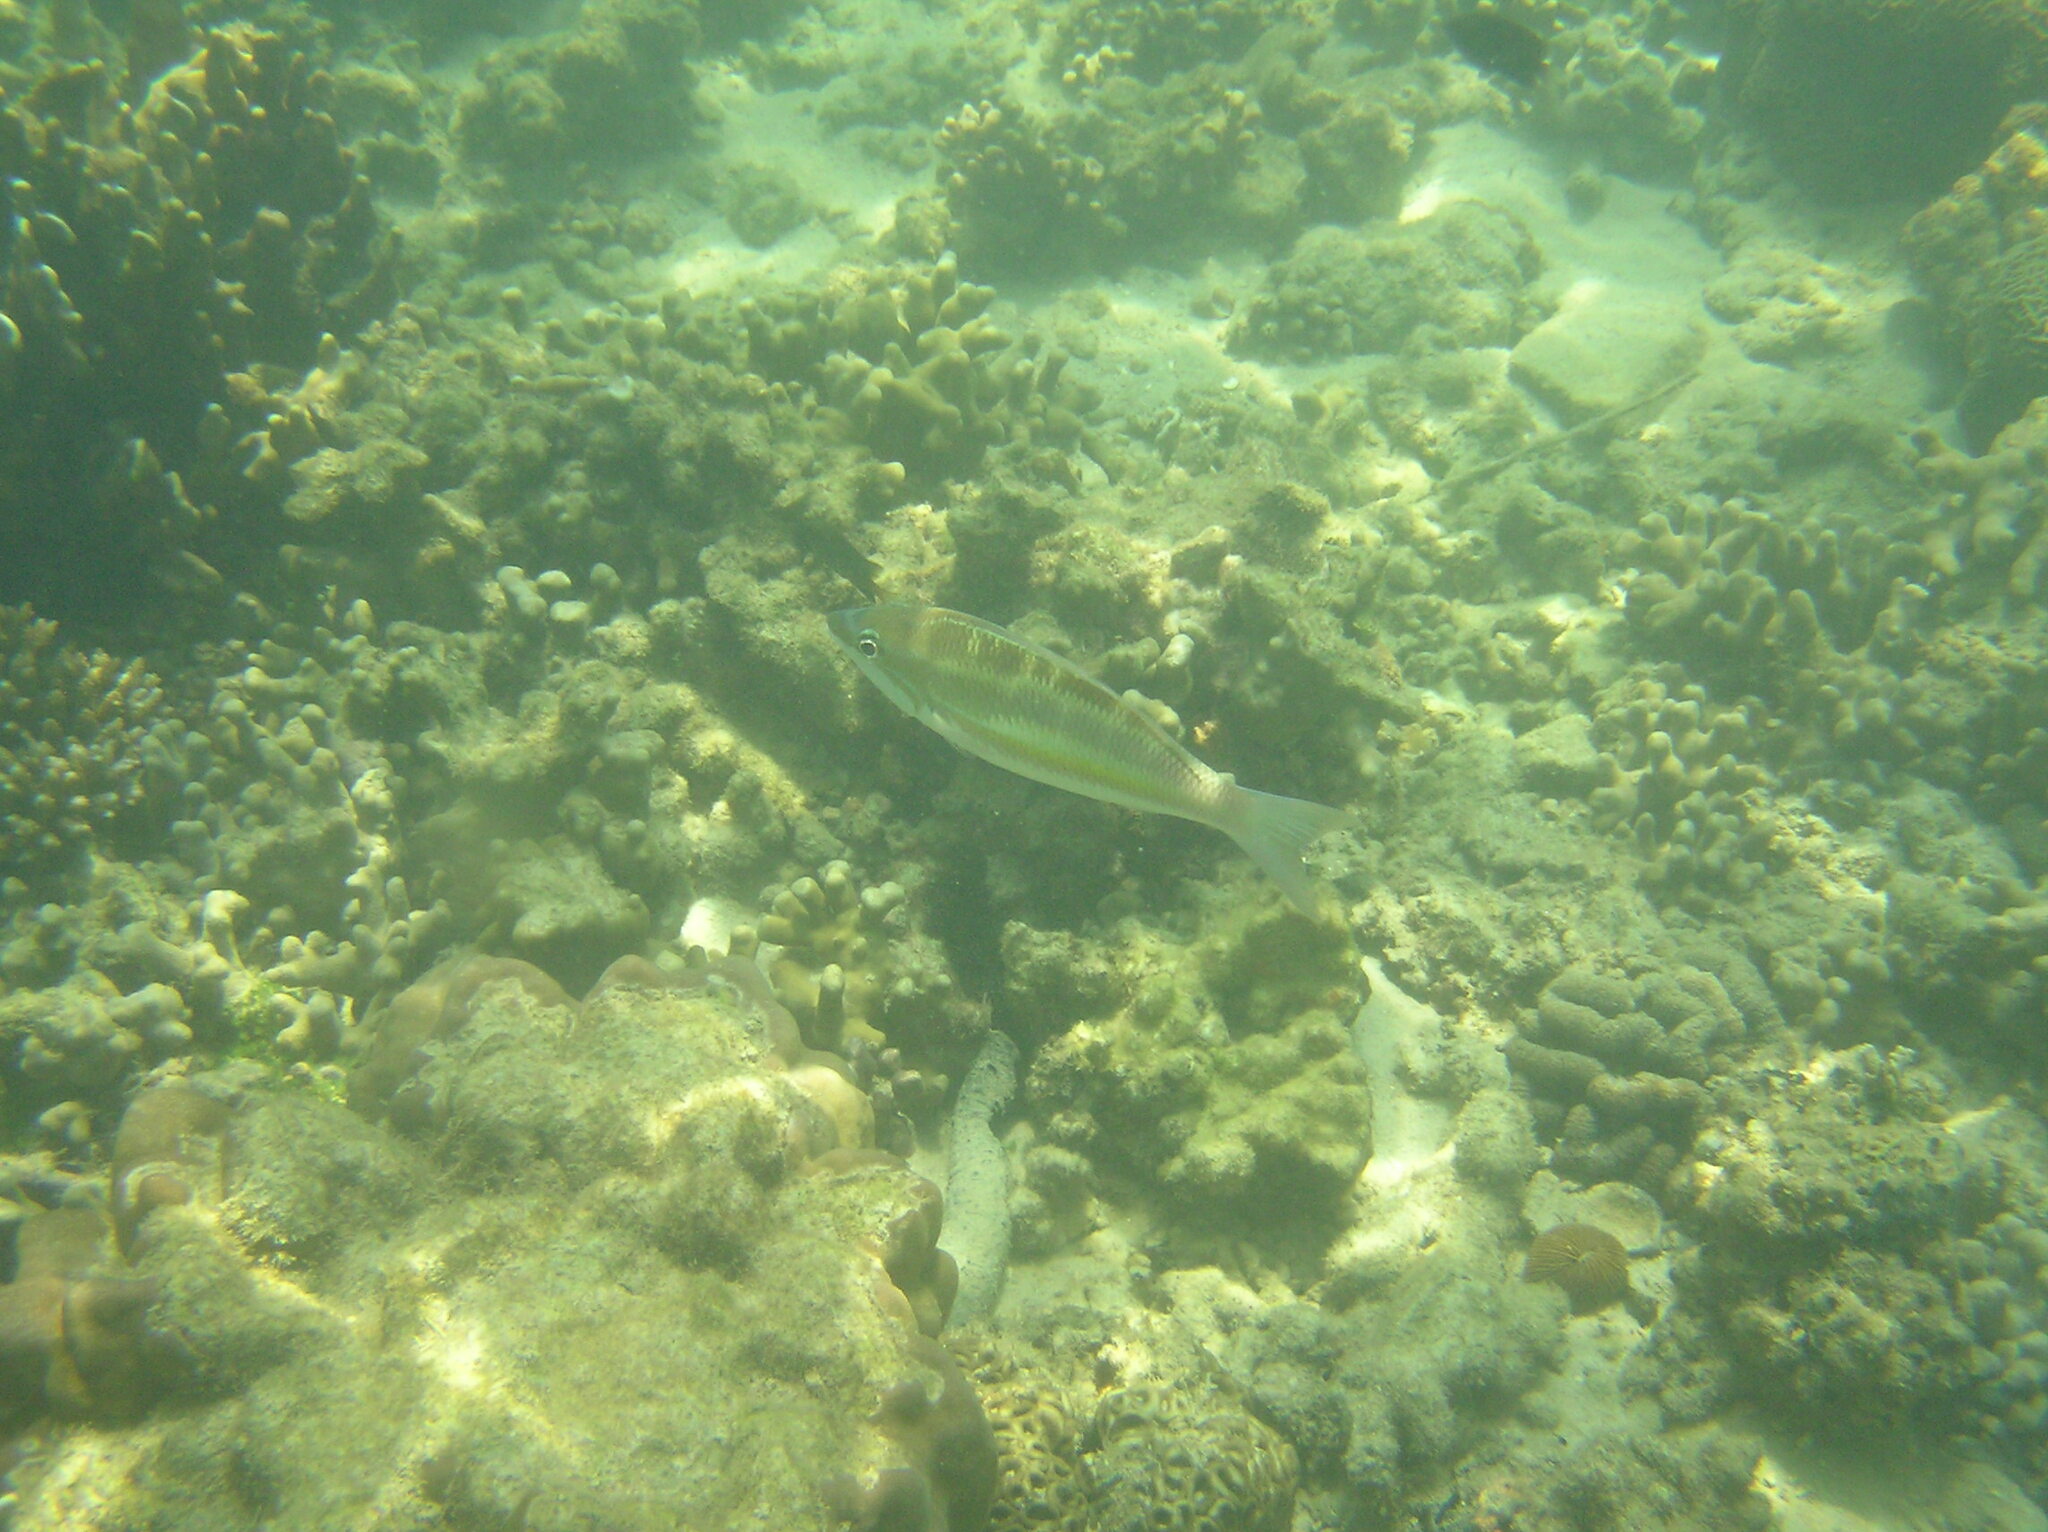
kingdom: Animalia
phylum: Chordata
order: Perciformes
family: Nemipteridae
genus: Pentapodus
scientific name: Pentapodus trivittatus
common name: Three-striped whiptail
